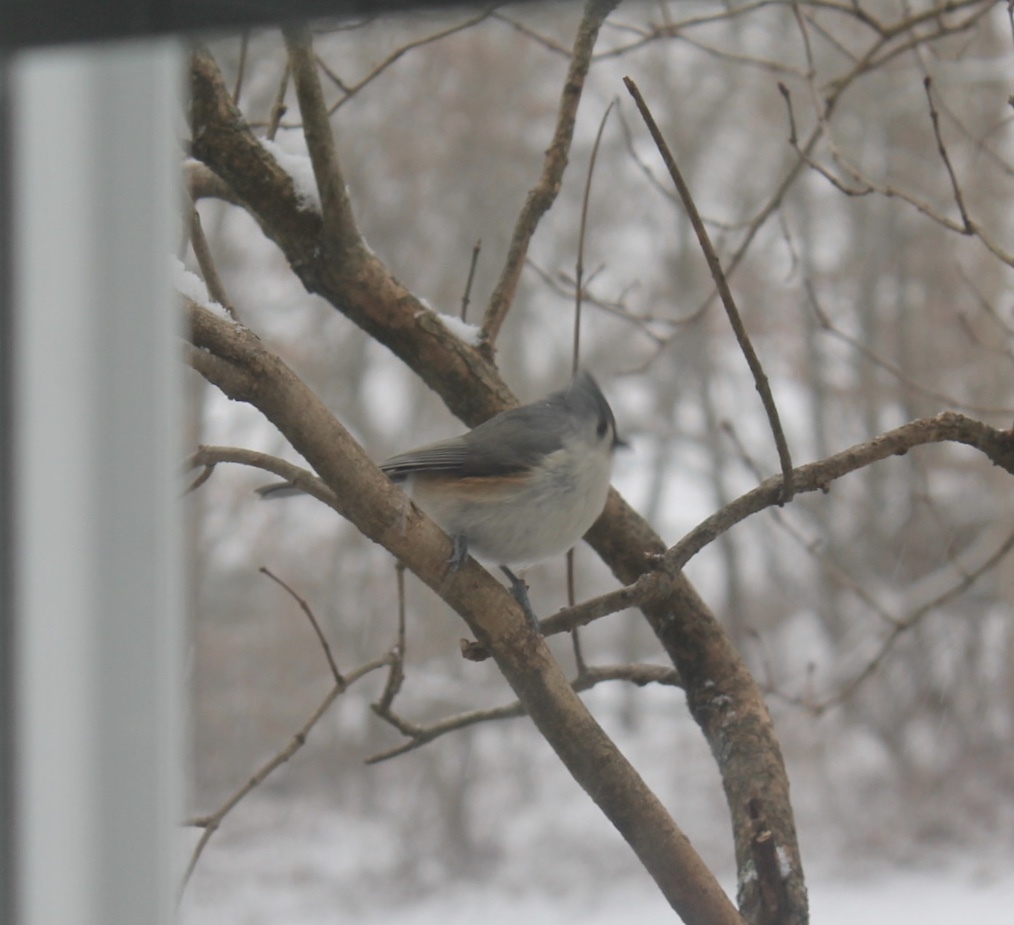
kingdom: Animalia
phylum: Chordata
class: Aves
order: Passeriformes
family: Paridae
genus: Baeolophus
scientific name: Baeolophus bicolor
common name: Tufted titmouse
